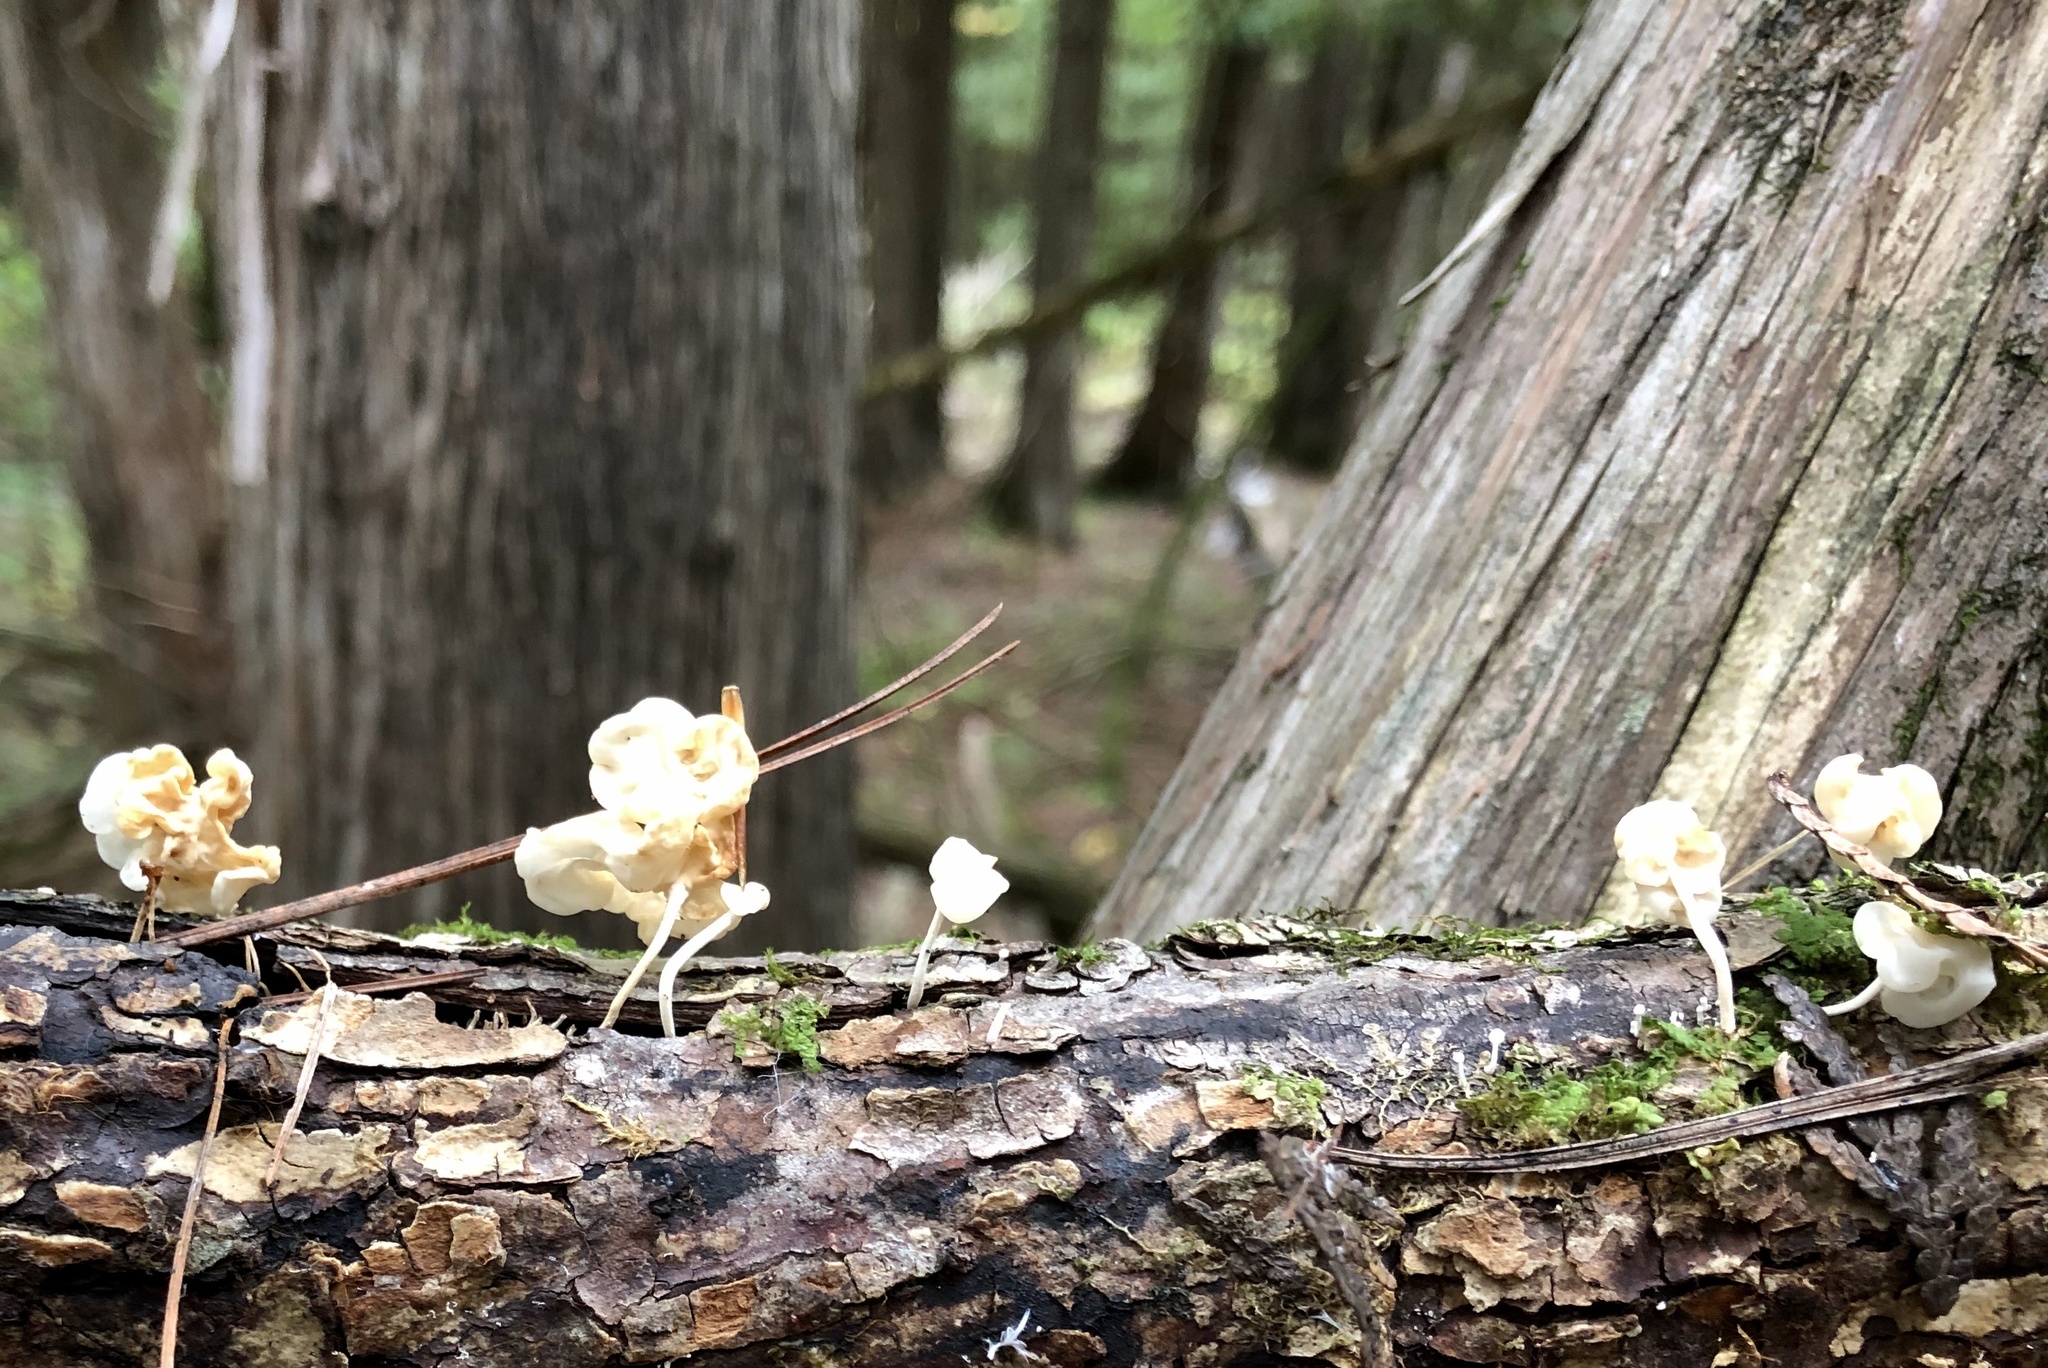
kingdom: Fungi
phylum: Basidiomycota
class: Agaricomycetes
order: Agaricales
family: Physalacriaceae
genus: Physalacria
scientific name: Physalacria inflata
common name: Bladder stalks
